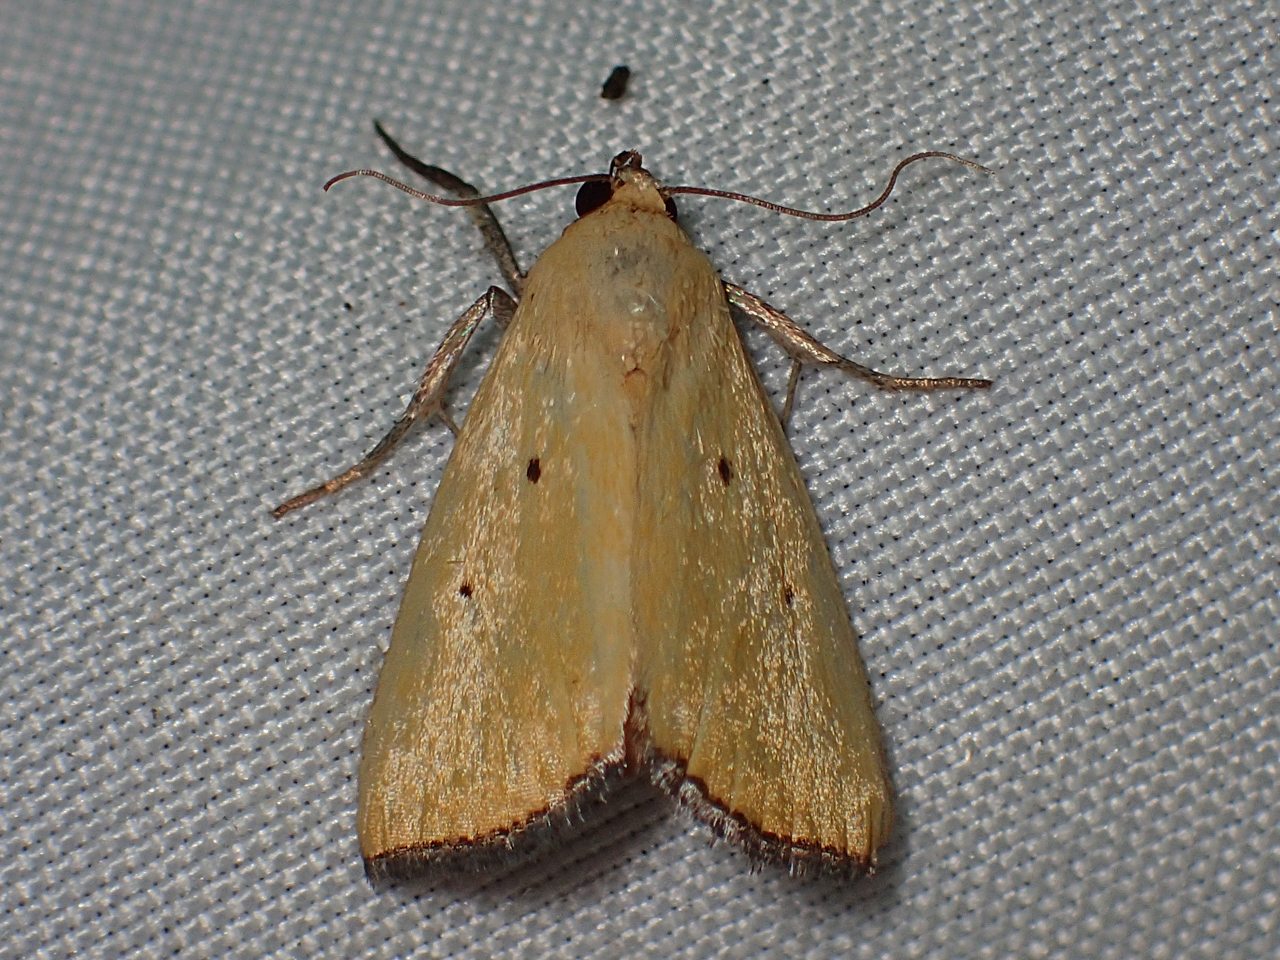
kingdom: Animalia
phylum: Arthropoda
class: Insecta
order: Lepidoptera
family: Noctuidae
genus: Marimatha
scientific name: Marimatha nigrofimbria
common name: Black-bordered lemon moth
